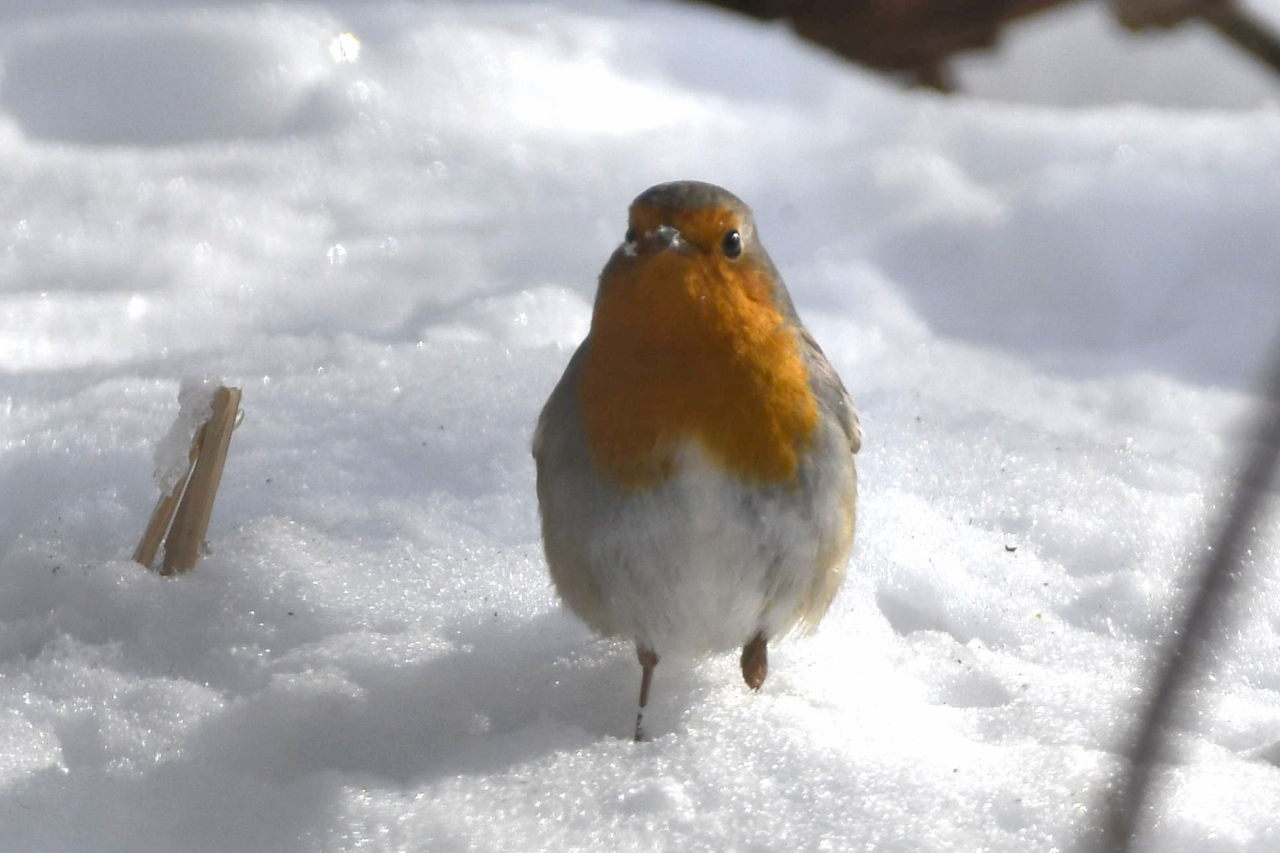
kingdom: Animalia
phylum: Chordata
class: Aves
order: Passeriformes
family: Muscicapidae
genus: Erithacus
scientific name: Erithacus rubecula
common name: European robin
